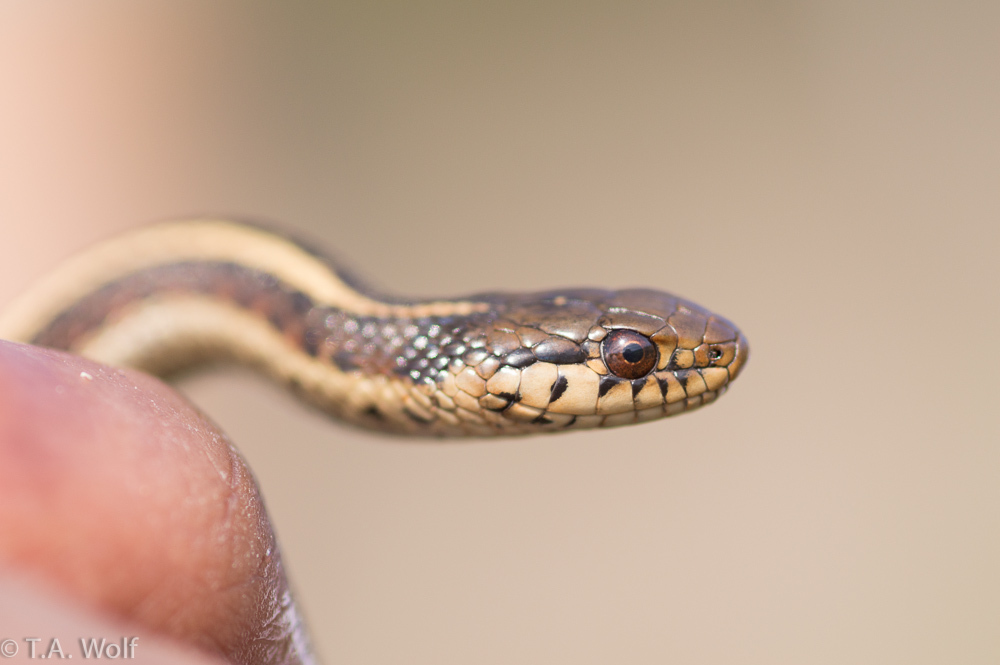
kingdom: Animalia
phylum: Chordata
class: Squamata
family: Colubridae
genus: Thamnophis
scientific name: Thamnophis elegans
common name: Western terrestrial garter snake
